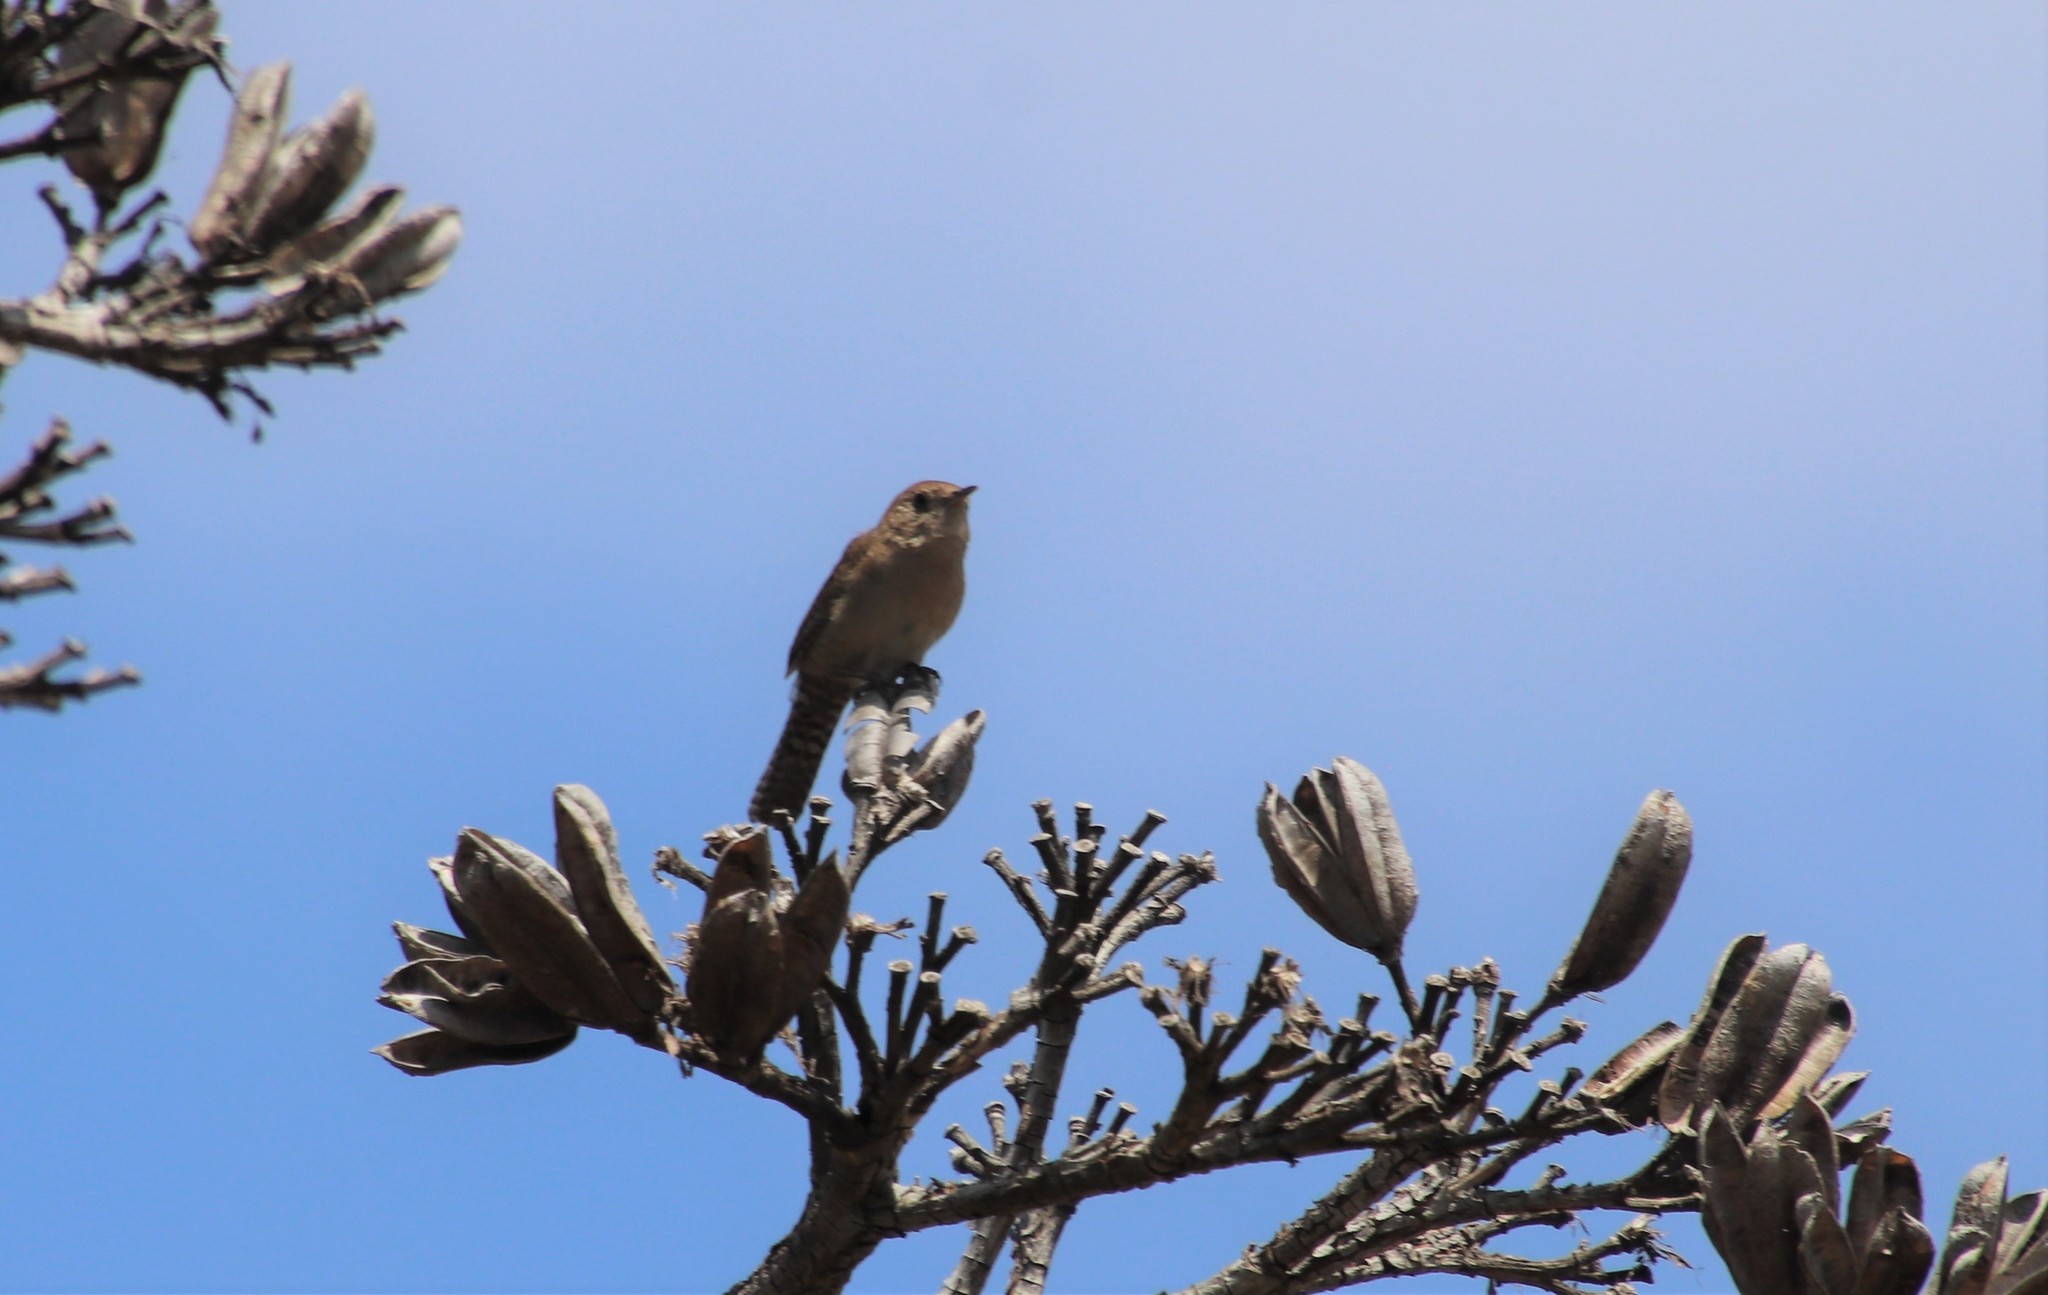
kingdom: Animalia
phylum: Chordata
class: Aves
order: Passeriformes
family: Troglodytidae
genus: Troglodytes
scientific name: Troglodytes aedon
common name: House wren
